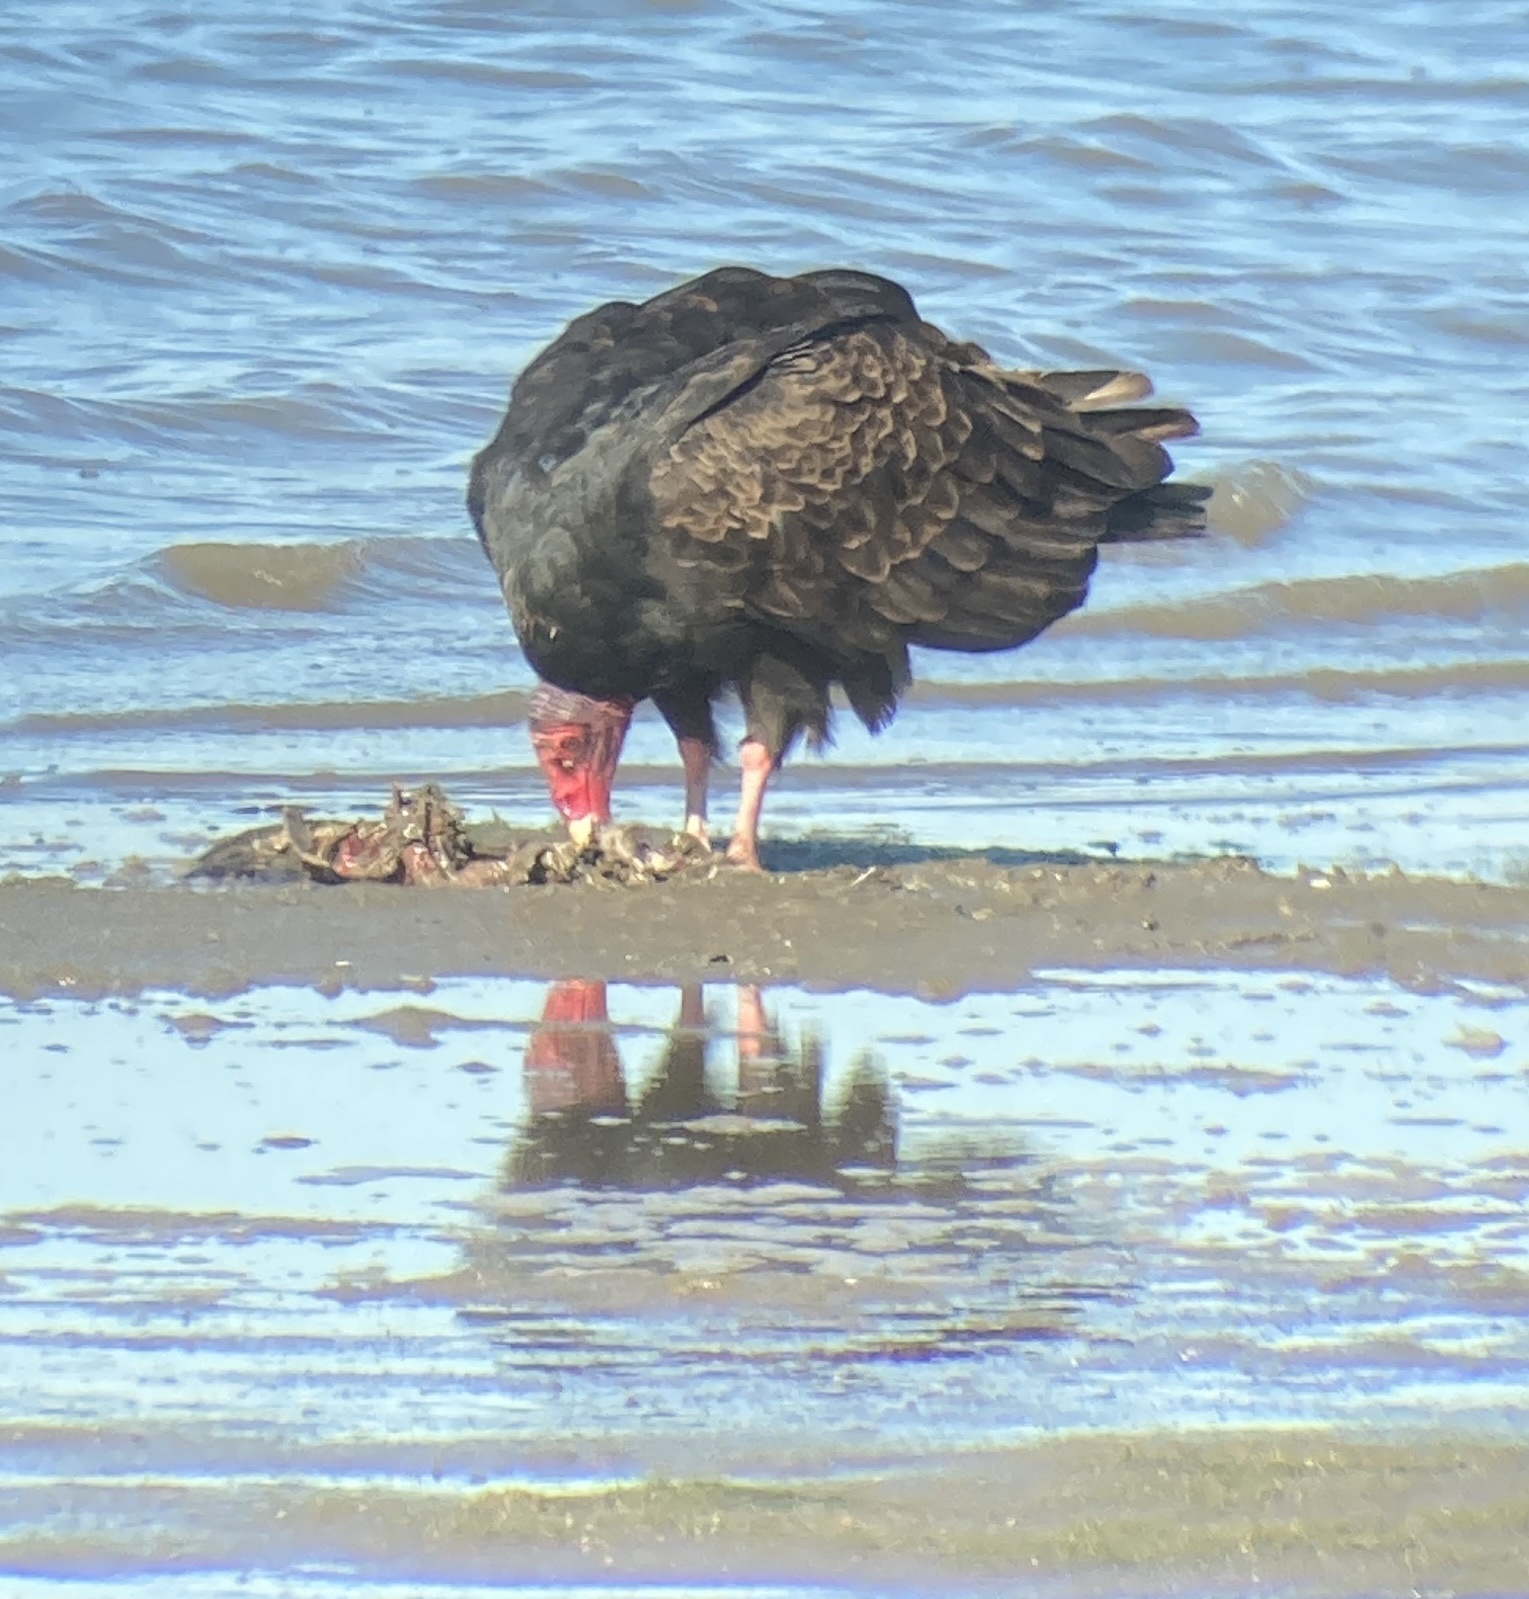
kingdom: Animalia
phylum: Chordata
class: Aves
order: Accipitriformes
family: Cathartidae
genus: Cathartes
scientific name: Cathartes aura
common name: Turkey vulture
